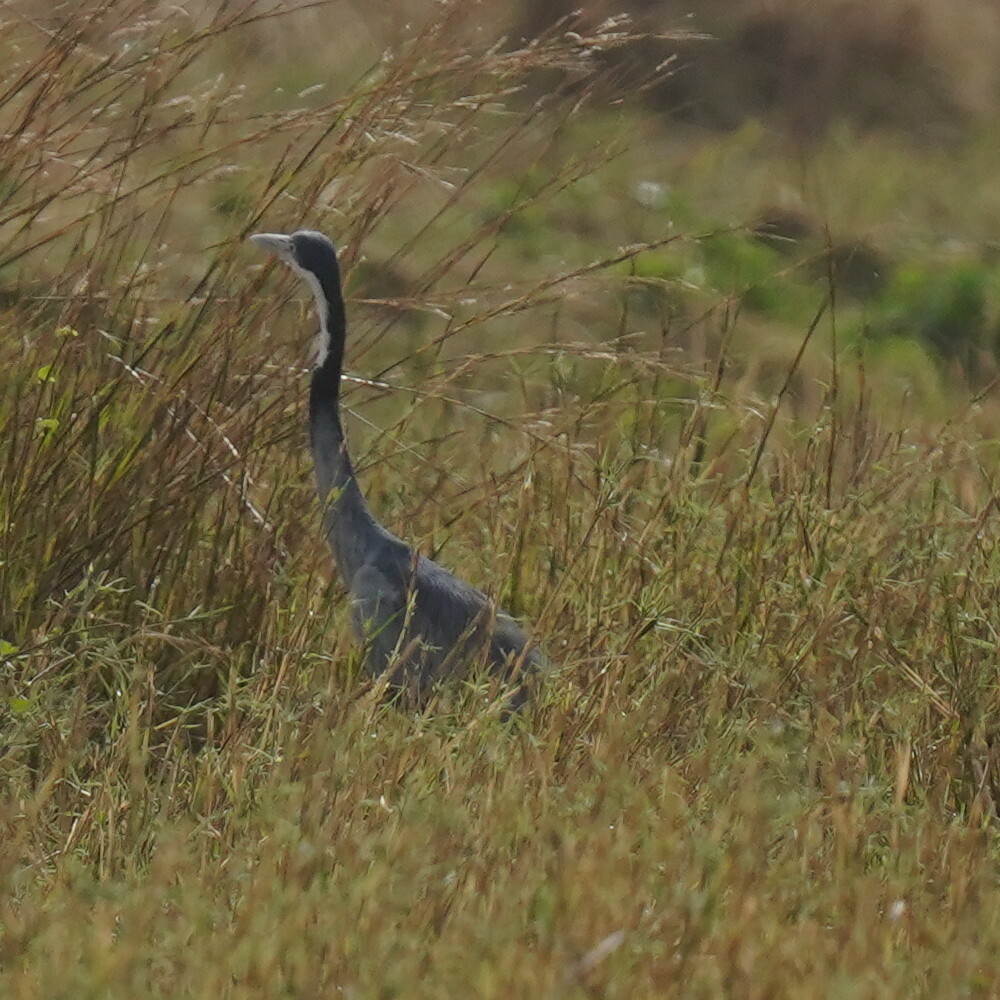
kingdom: Animalia
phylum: Chordata
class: Aves
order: Pelecaniformes
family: Ardeidae
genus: Ardea
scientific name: Ardea melanocephala
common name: Black-headed heron
